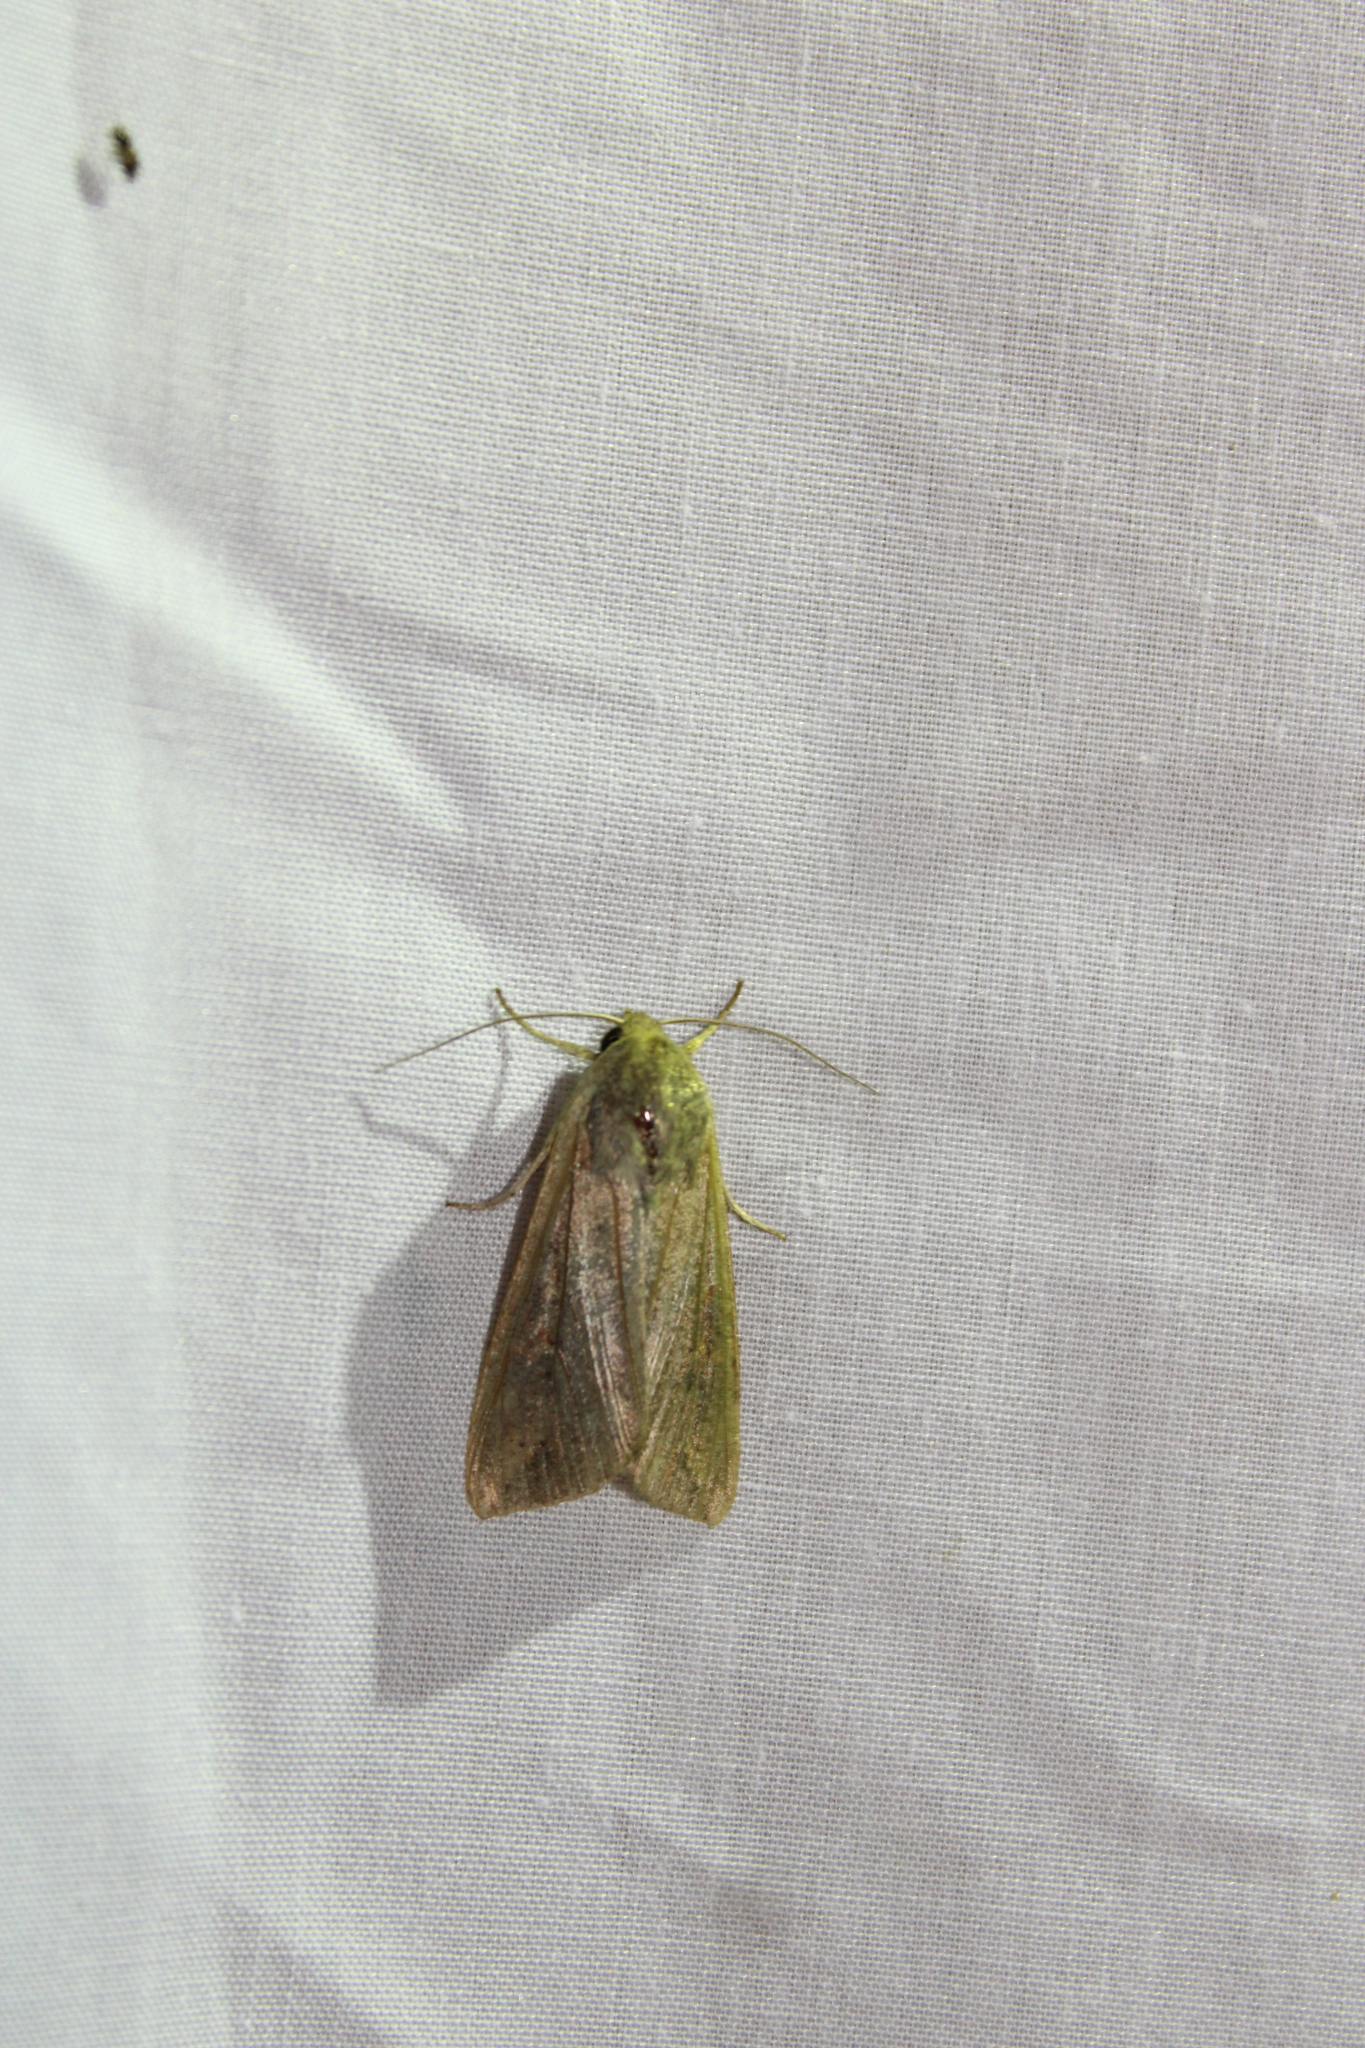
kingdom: Animalia
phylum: Arthropoda
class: Insecta
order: Lepidoptera
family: Noctuidae
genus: Mythimna
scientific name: Mythimna unipuncta
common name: White-speck
